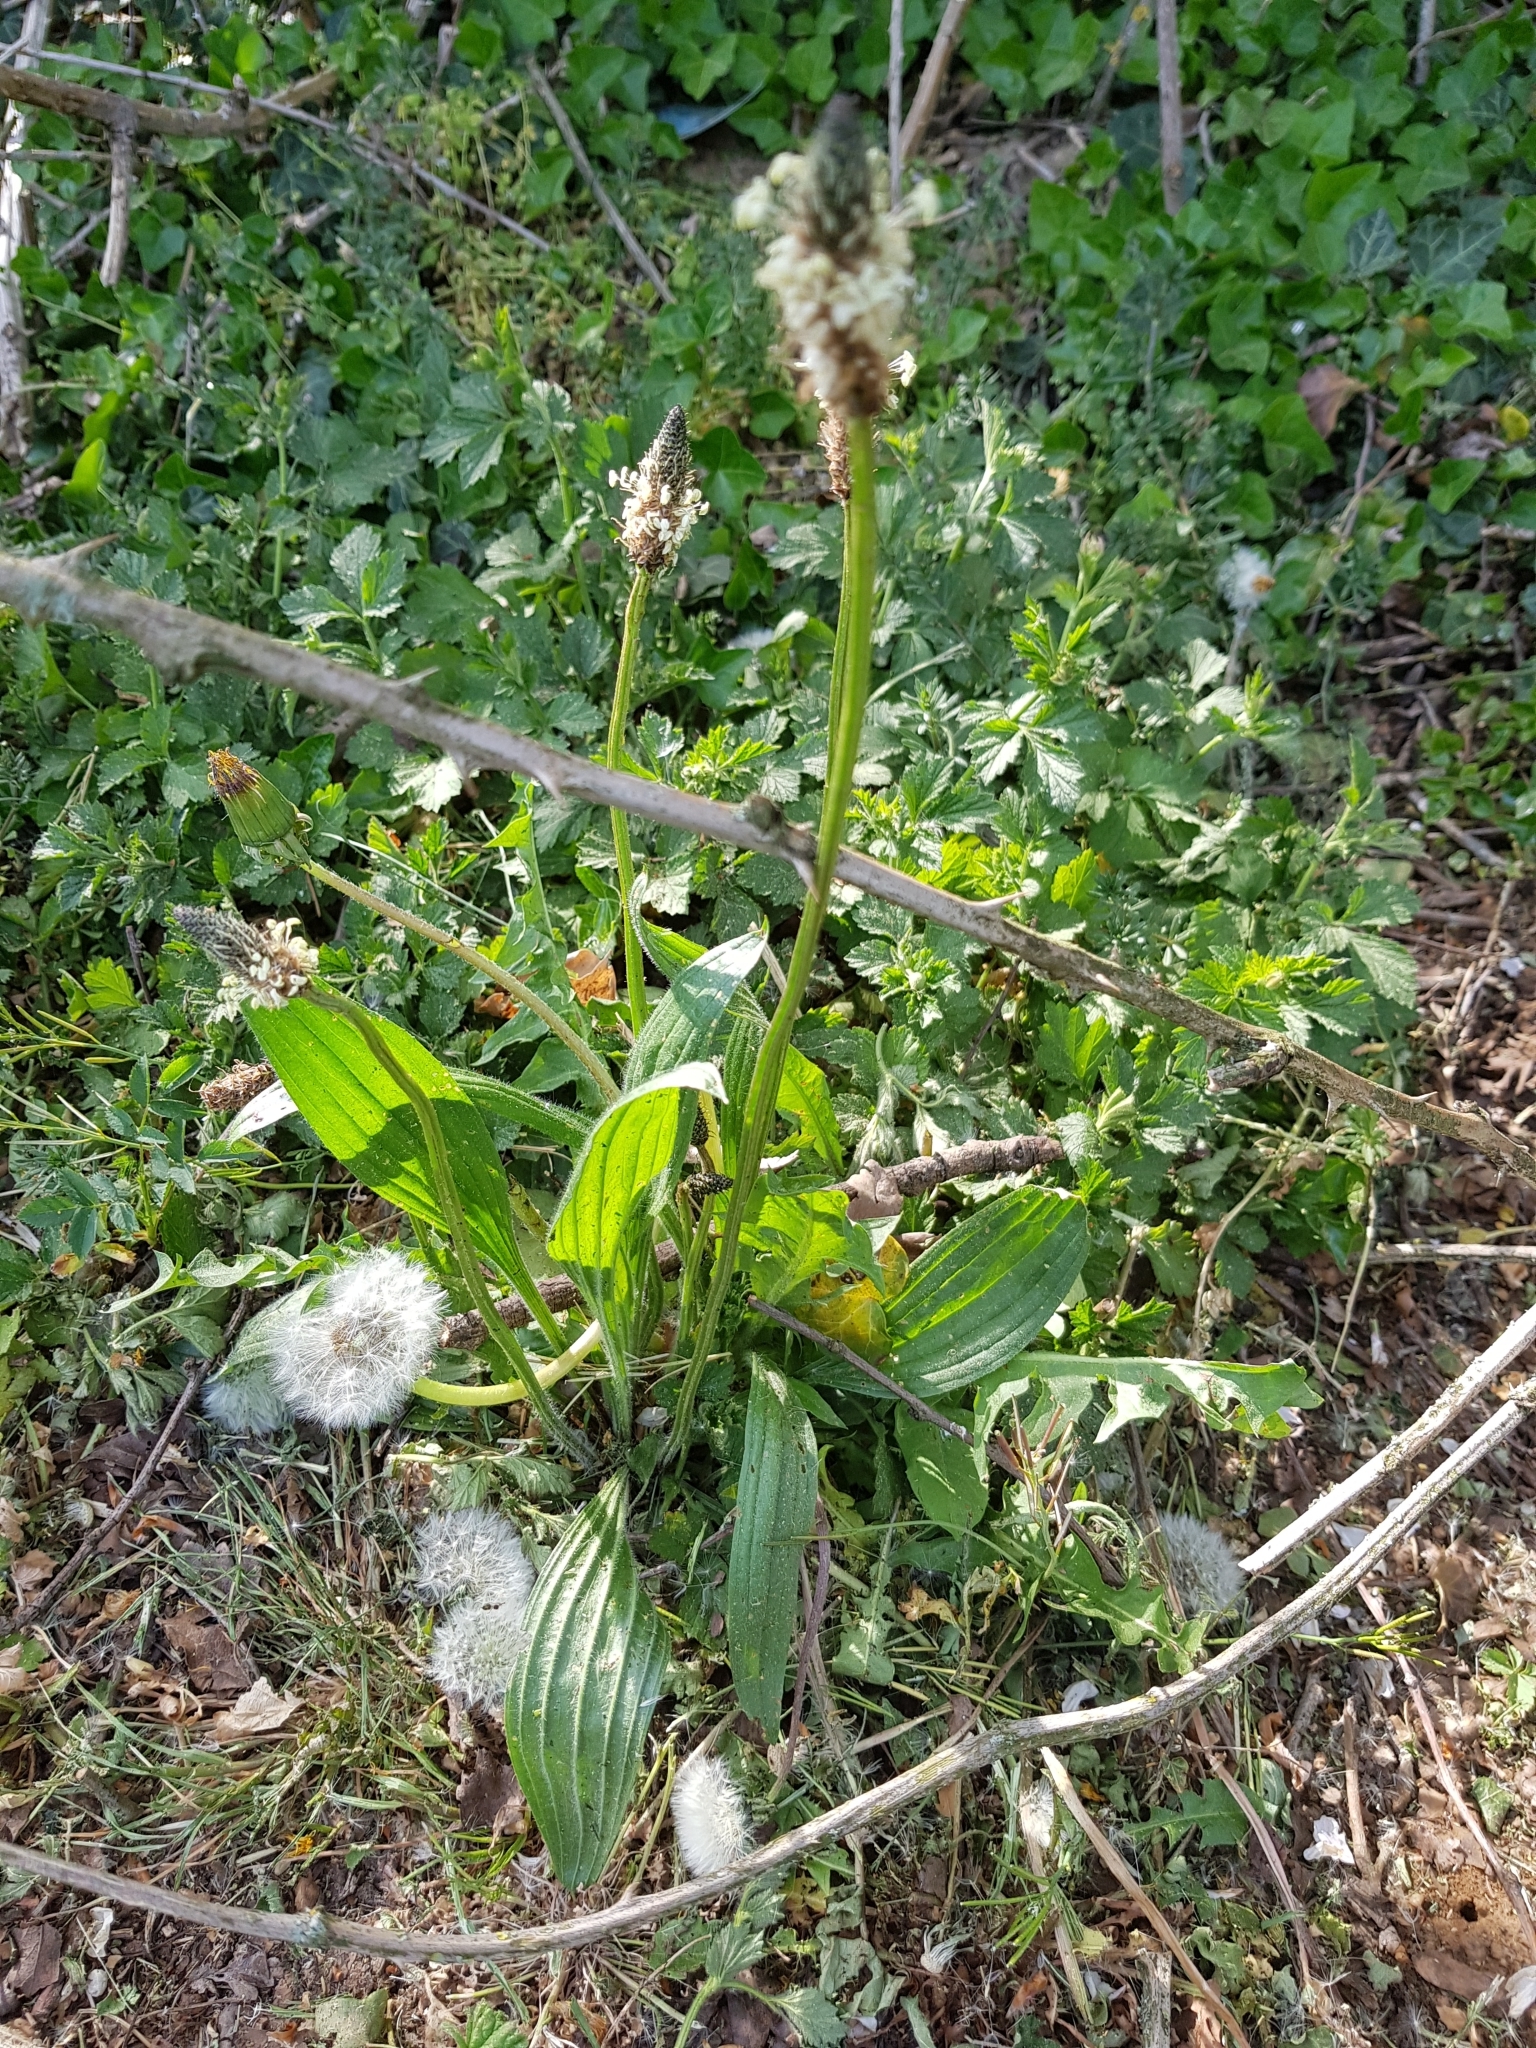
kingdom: Plantae
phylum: Tracheophyta
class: Magnoliopsida
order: Lamiales
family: Plantaginaceae
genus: Plantago
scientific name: Plantago lanceolata
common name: Ribwort plantain
